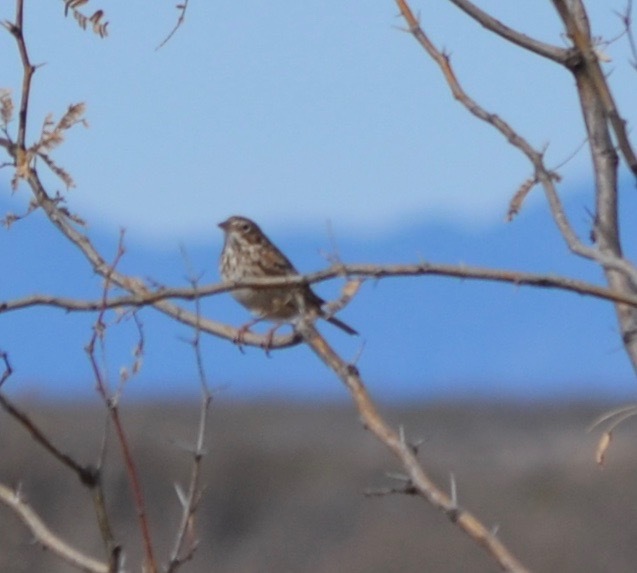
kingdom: Animalia
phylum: Chordata
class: Aves
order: Passeriformes
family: Passerellidae
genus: Pooecetes
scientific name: Pooecetes gramineus
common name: Vesper sparrow
